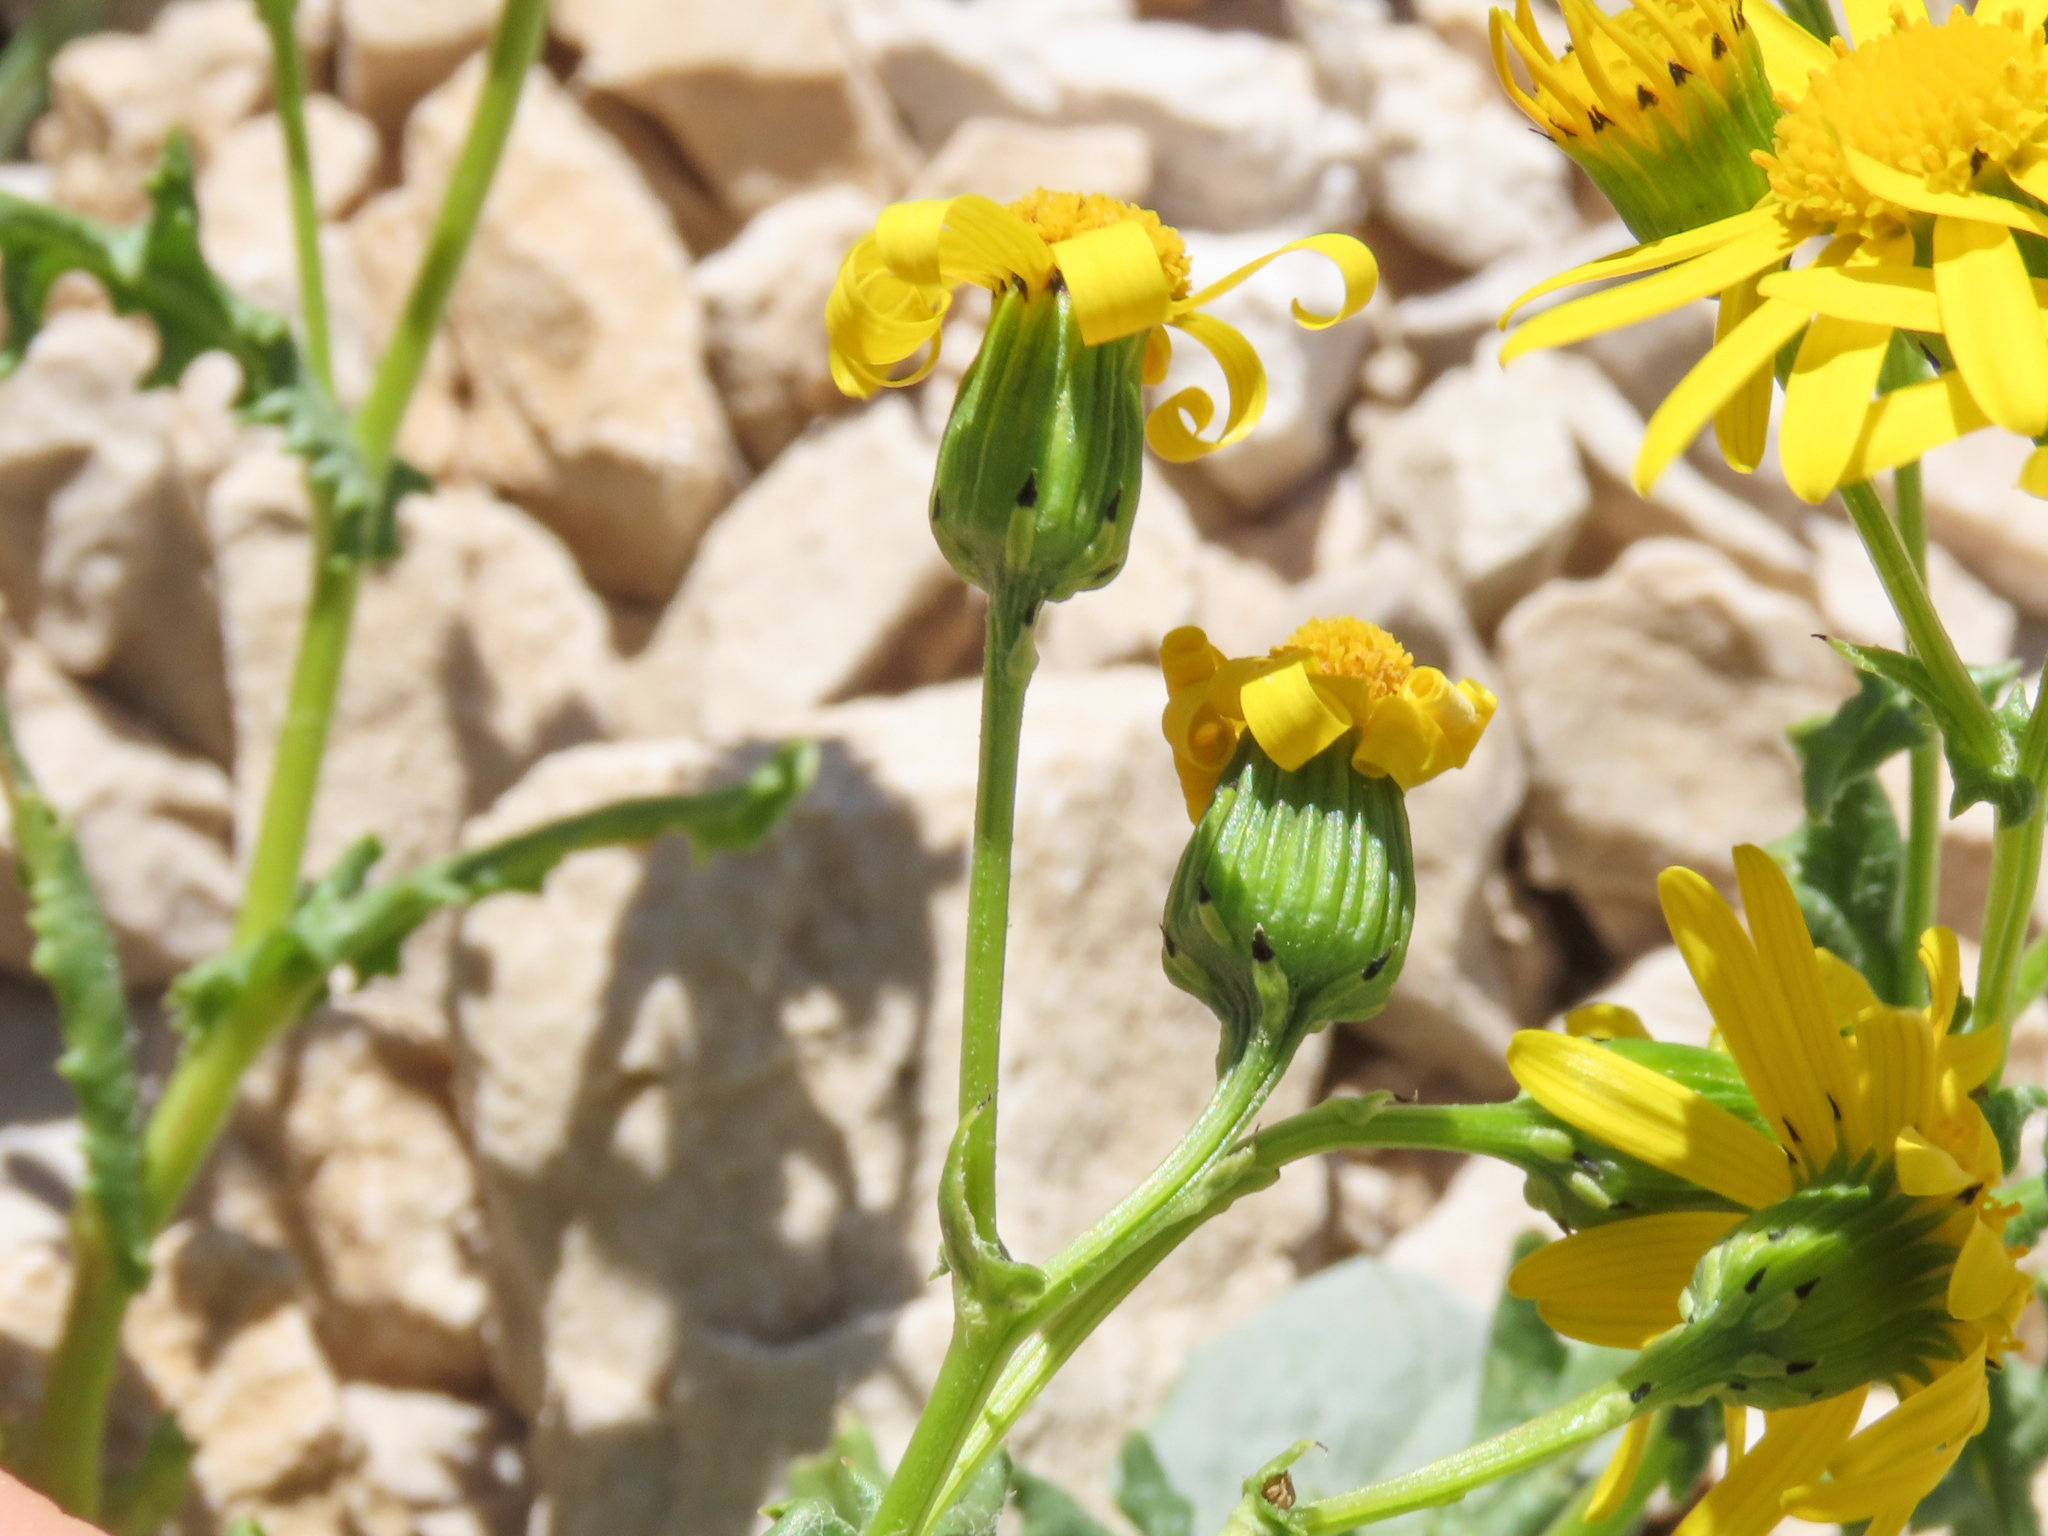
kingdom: Plantae
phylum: Tracheophyta
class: Magnoliopsida
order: Asterales
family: Asteraceae
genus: Senecio
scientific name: Senecio rupestris
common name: Rock ragwort
